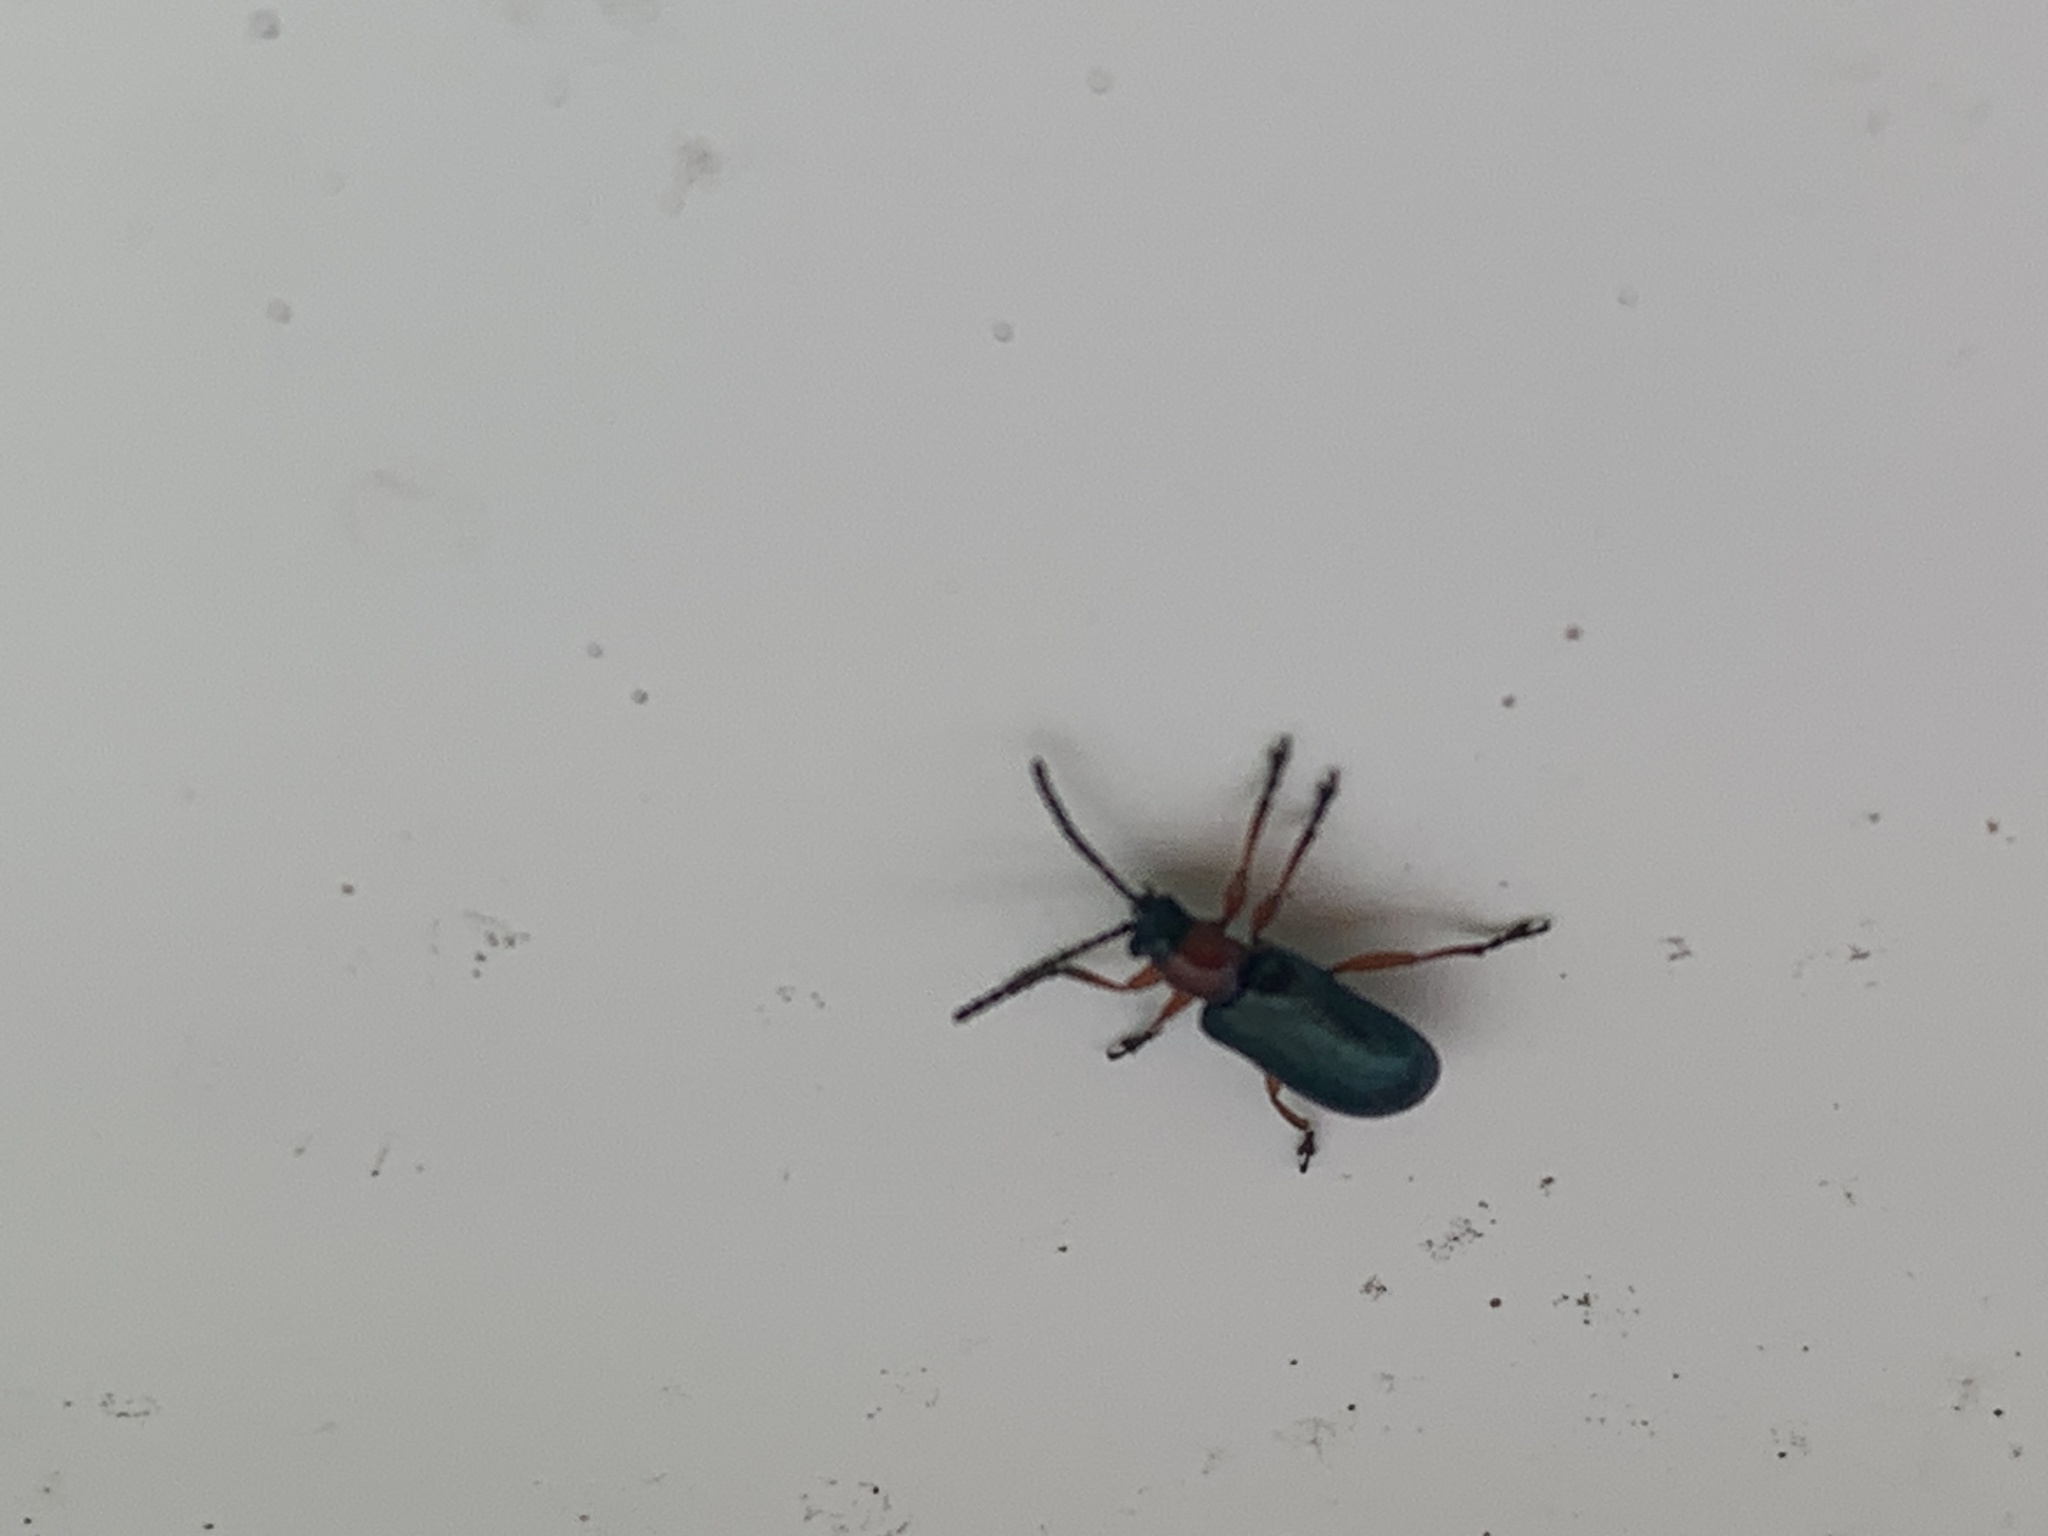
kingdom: Animalia
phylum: Arthropoda
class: Insecta
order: Coleoptera
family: Chrysomelidae
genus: Oulema
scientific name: Oulema
